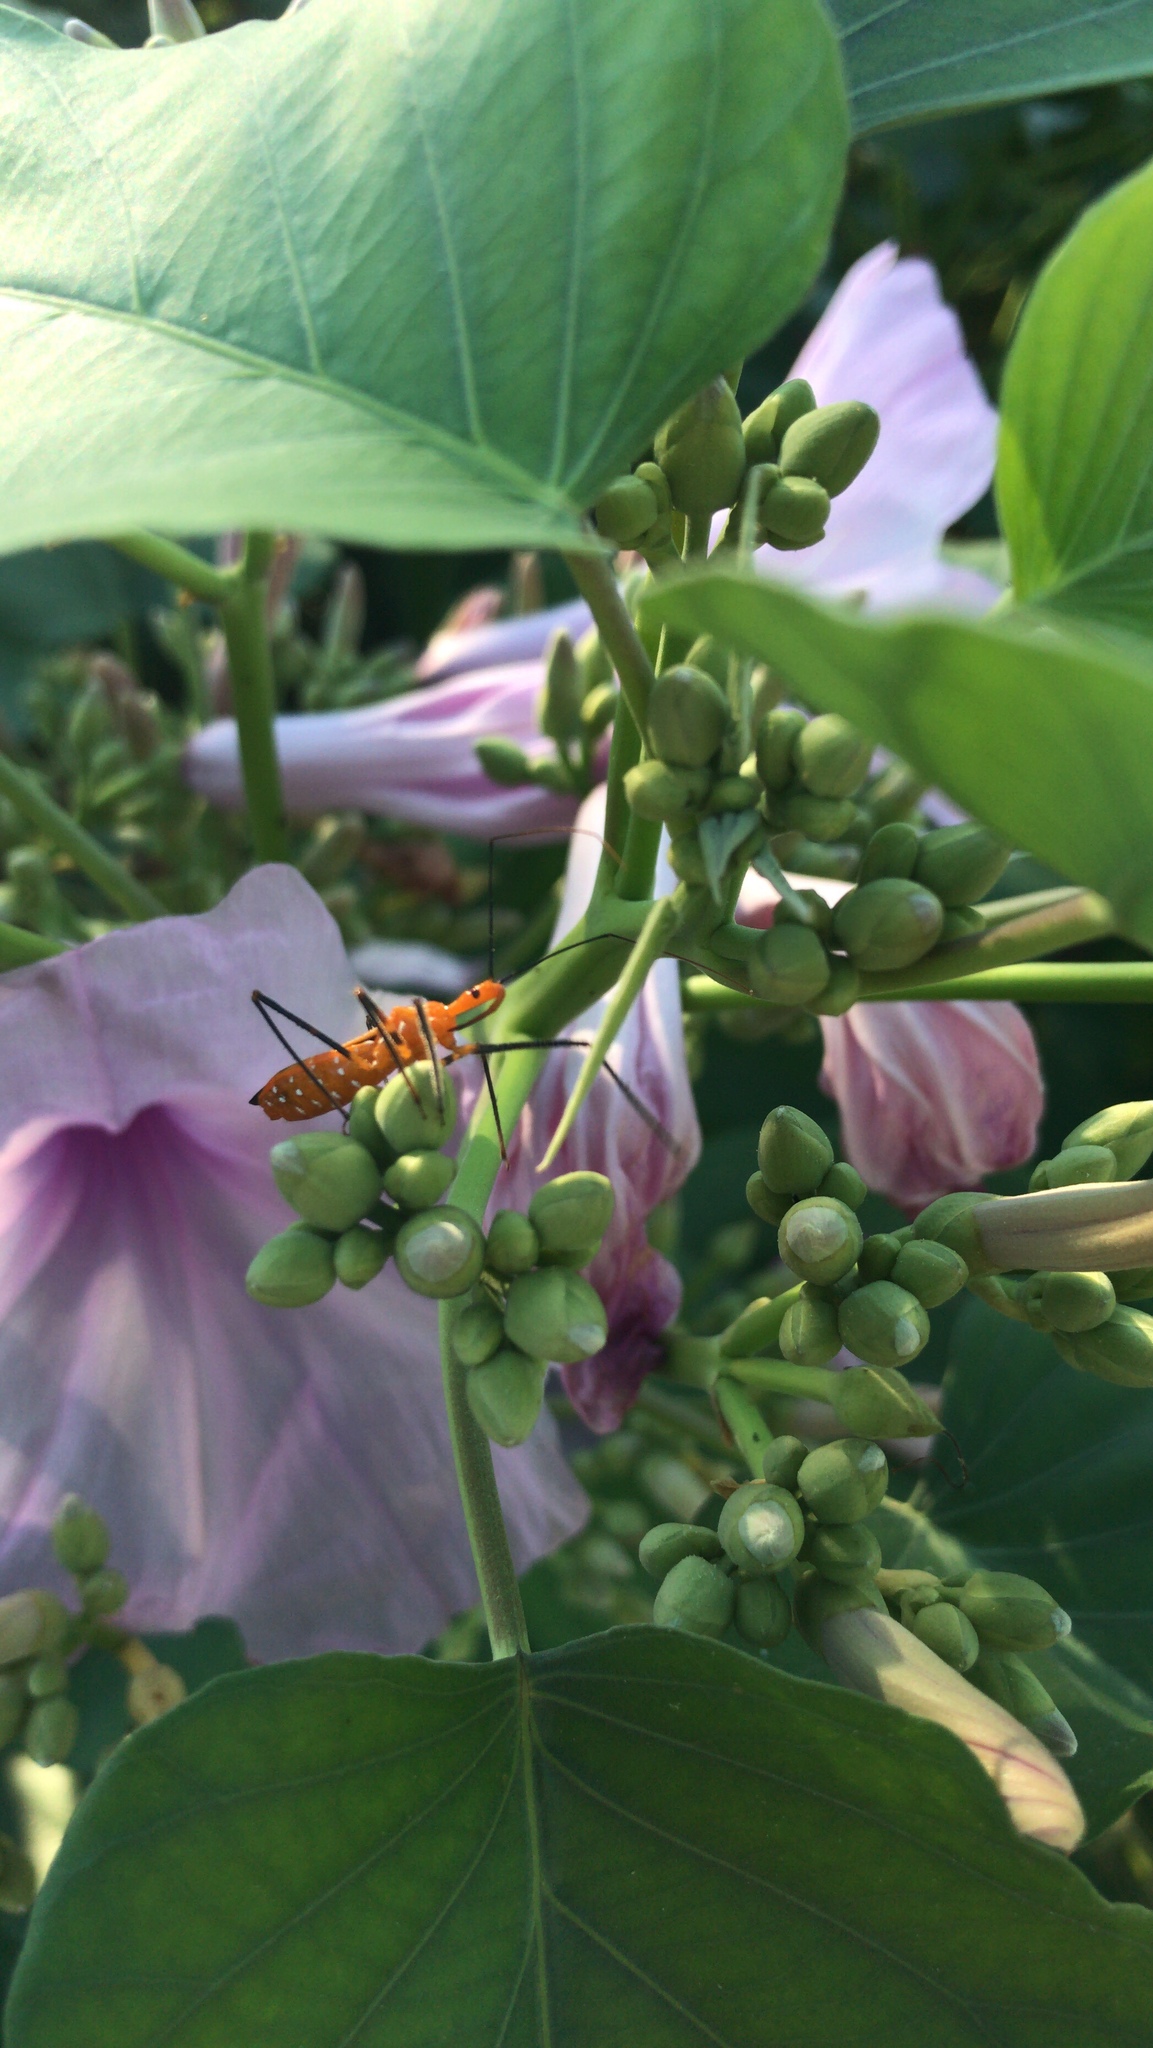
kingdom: Animalia
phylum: Arthropoda
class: Insecta
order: Hemiptera
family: Reduviidae
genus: Zelus
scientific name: Zelus longipes
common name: Milkweed assassin bug
